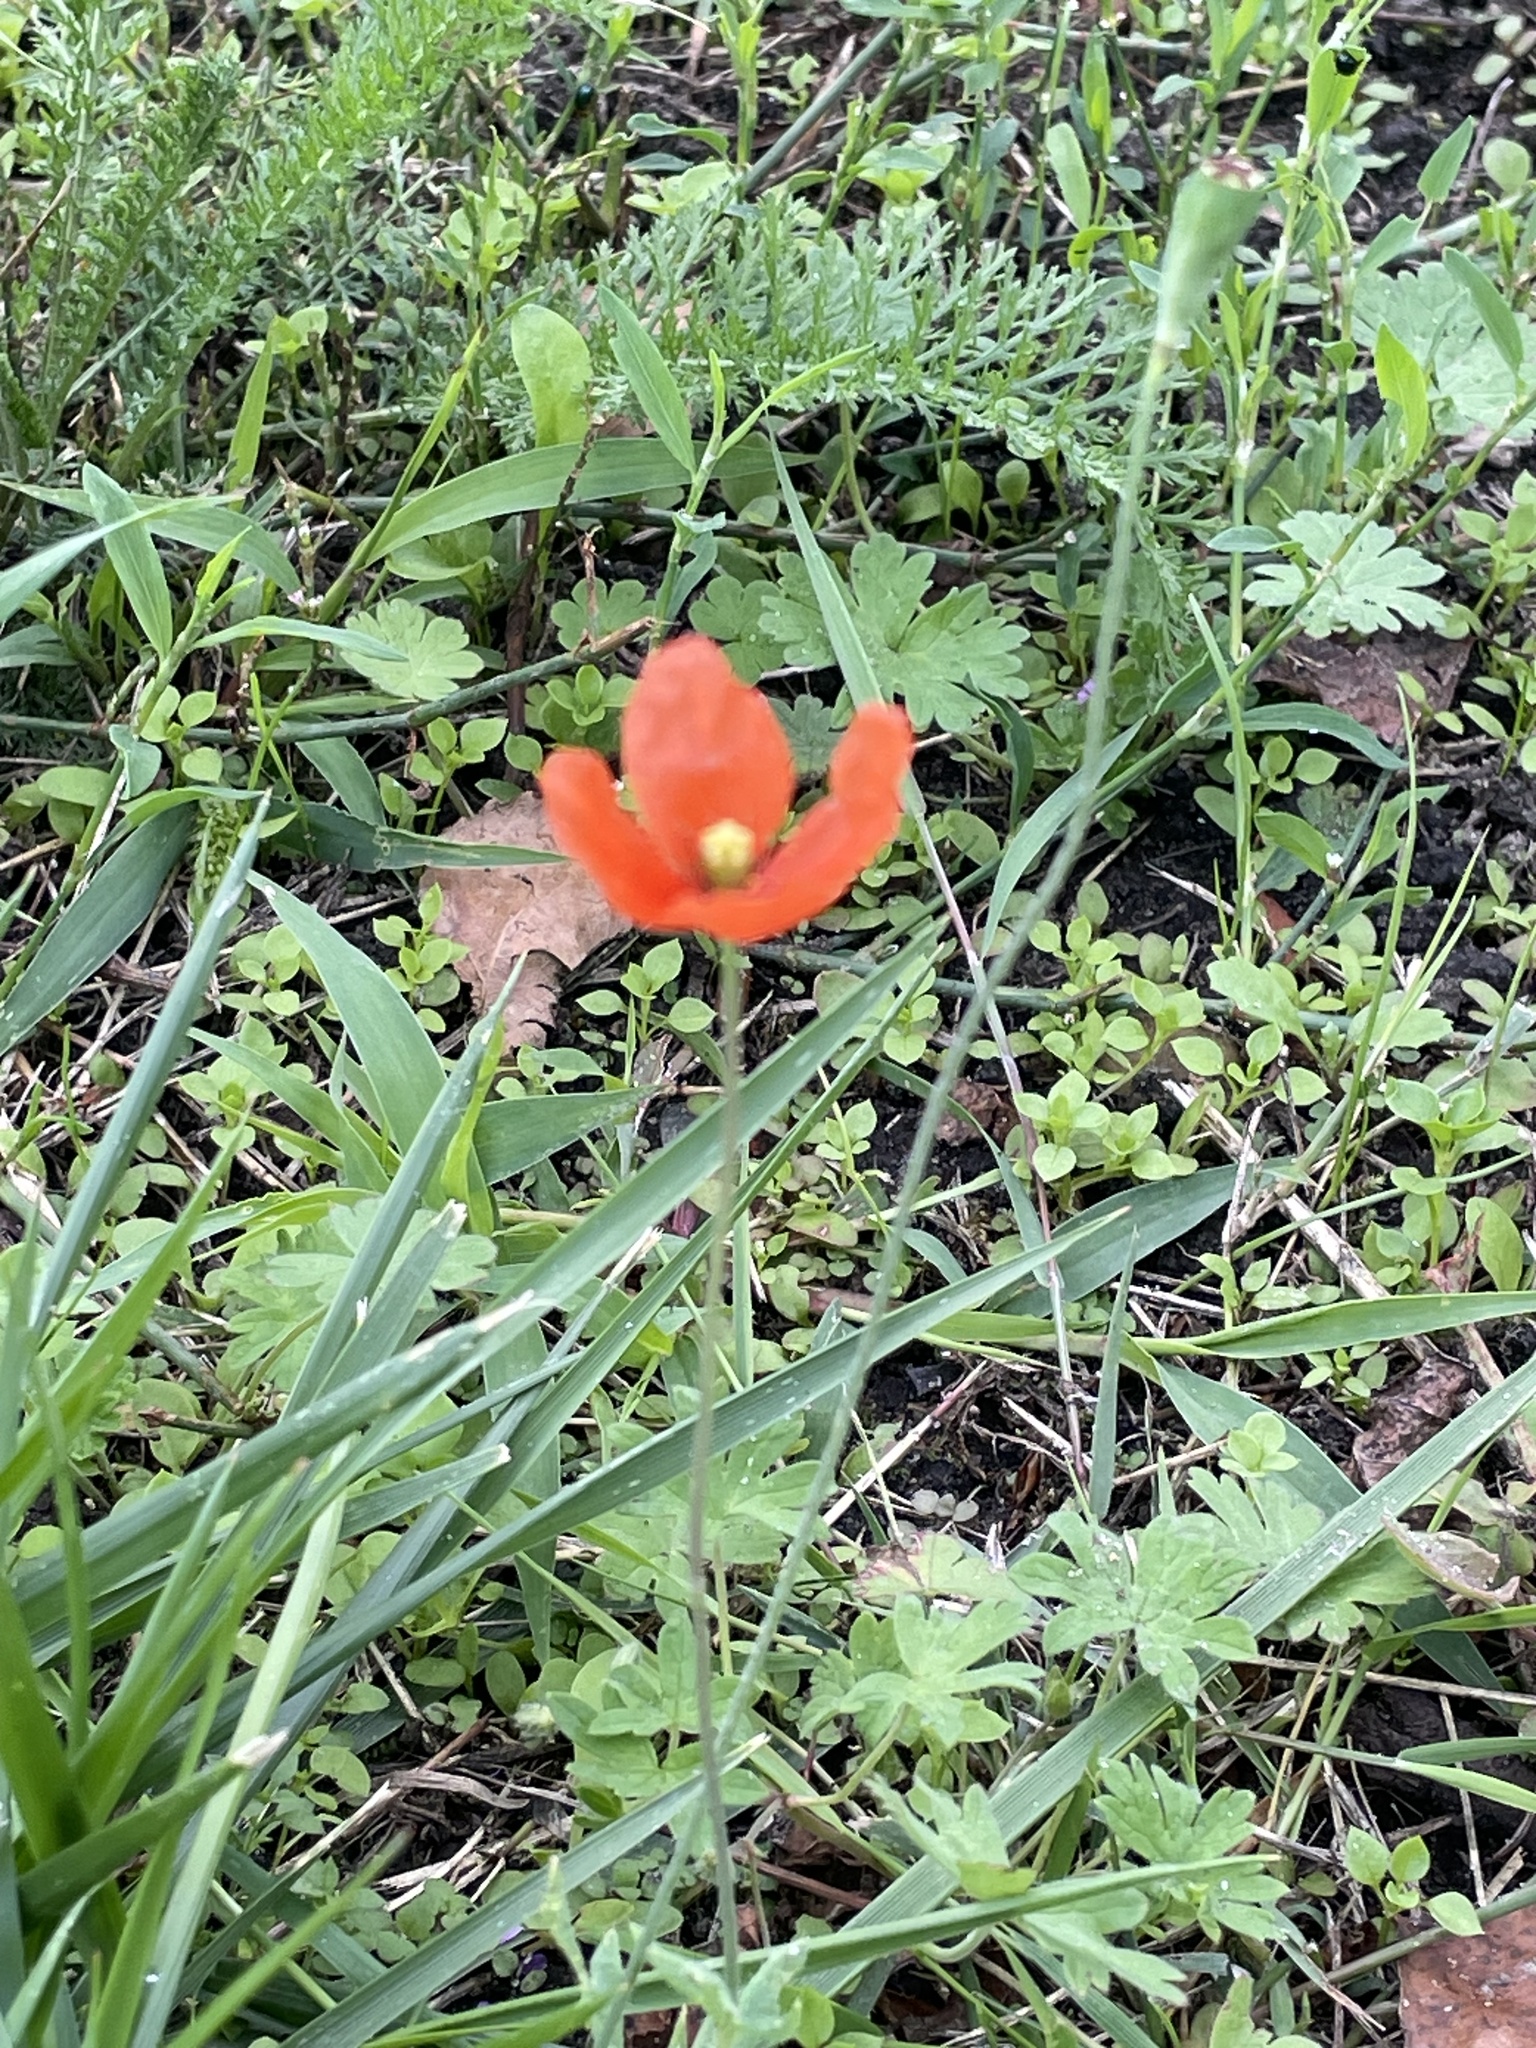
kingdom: Plantae
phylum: Tracheophyta
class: Magnoliopsida
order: Ranunculales
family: Papaveraceae
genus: Papaver
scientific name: Papaver dubium
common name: Long-headed poppy
